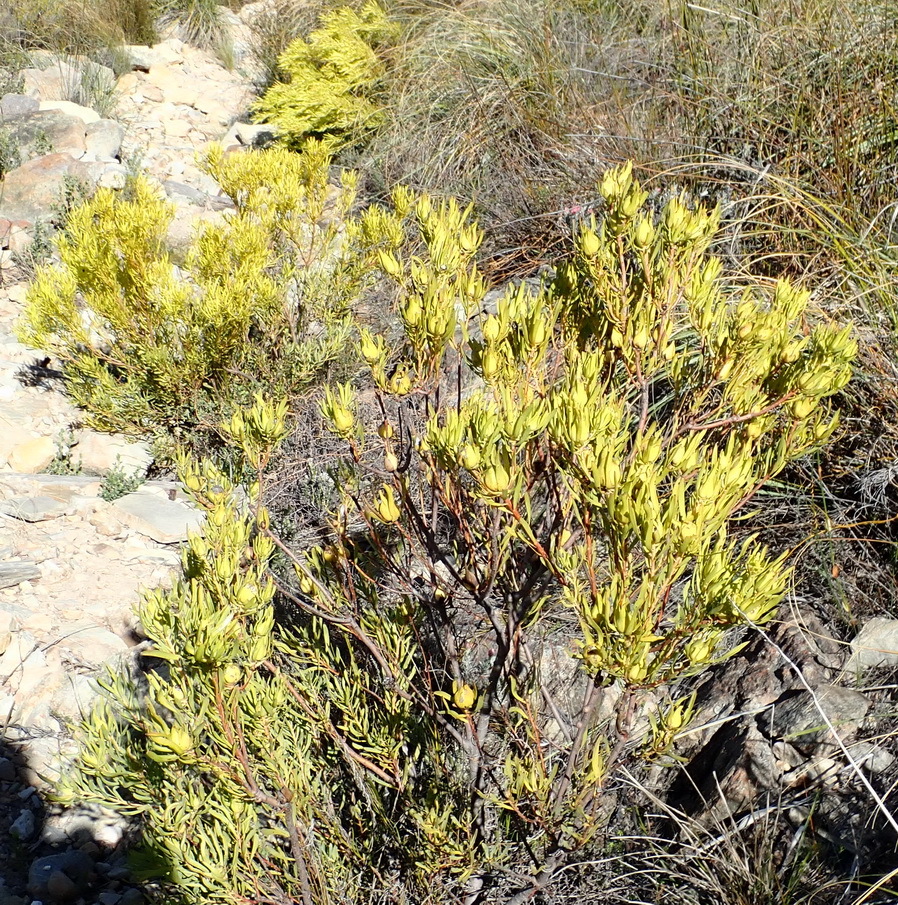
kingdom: Plantae
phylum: Tracheophyta
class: Magnoliopsida
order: Proteales
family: Proteaceae
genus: Leucadendron
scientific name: Leucadendron salignum
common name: Common sunshine conebush
